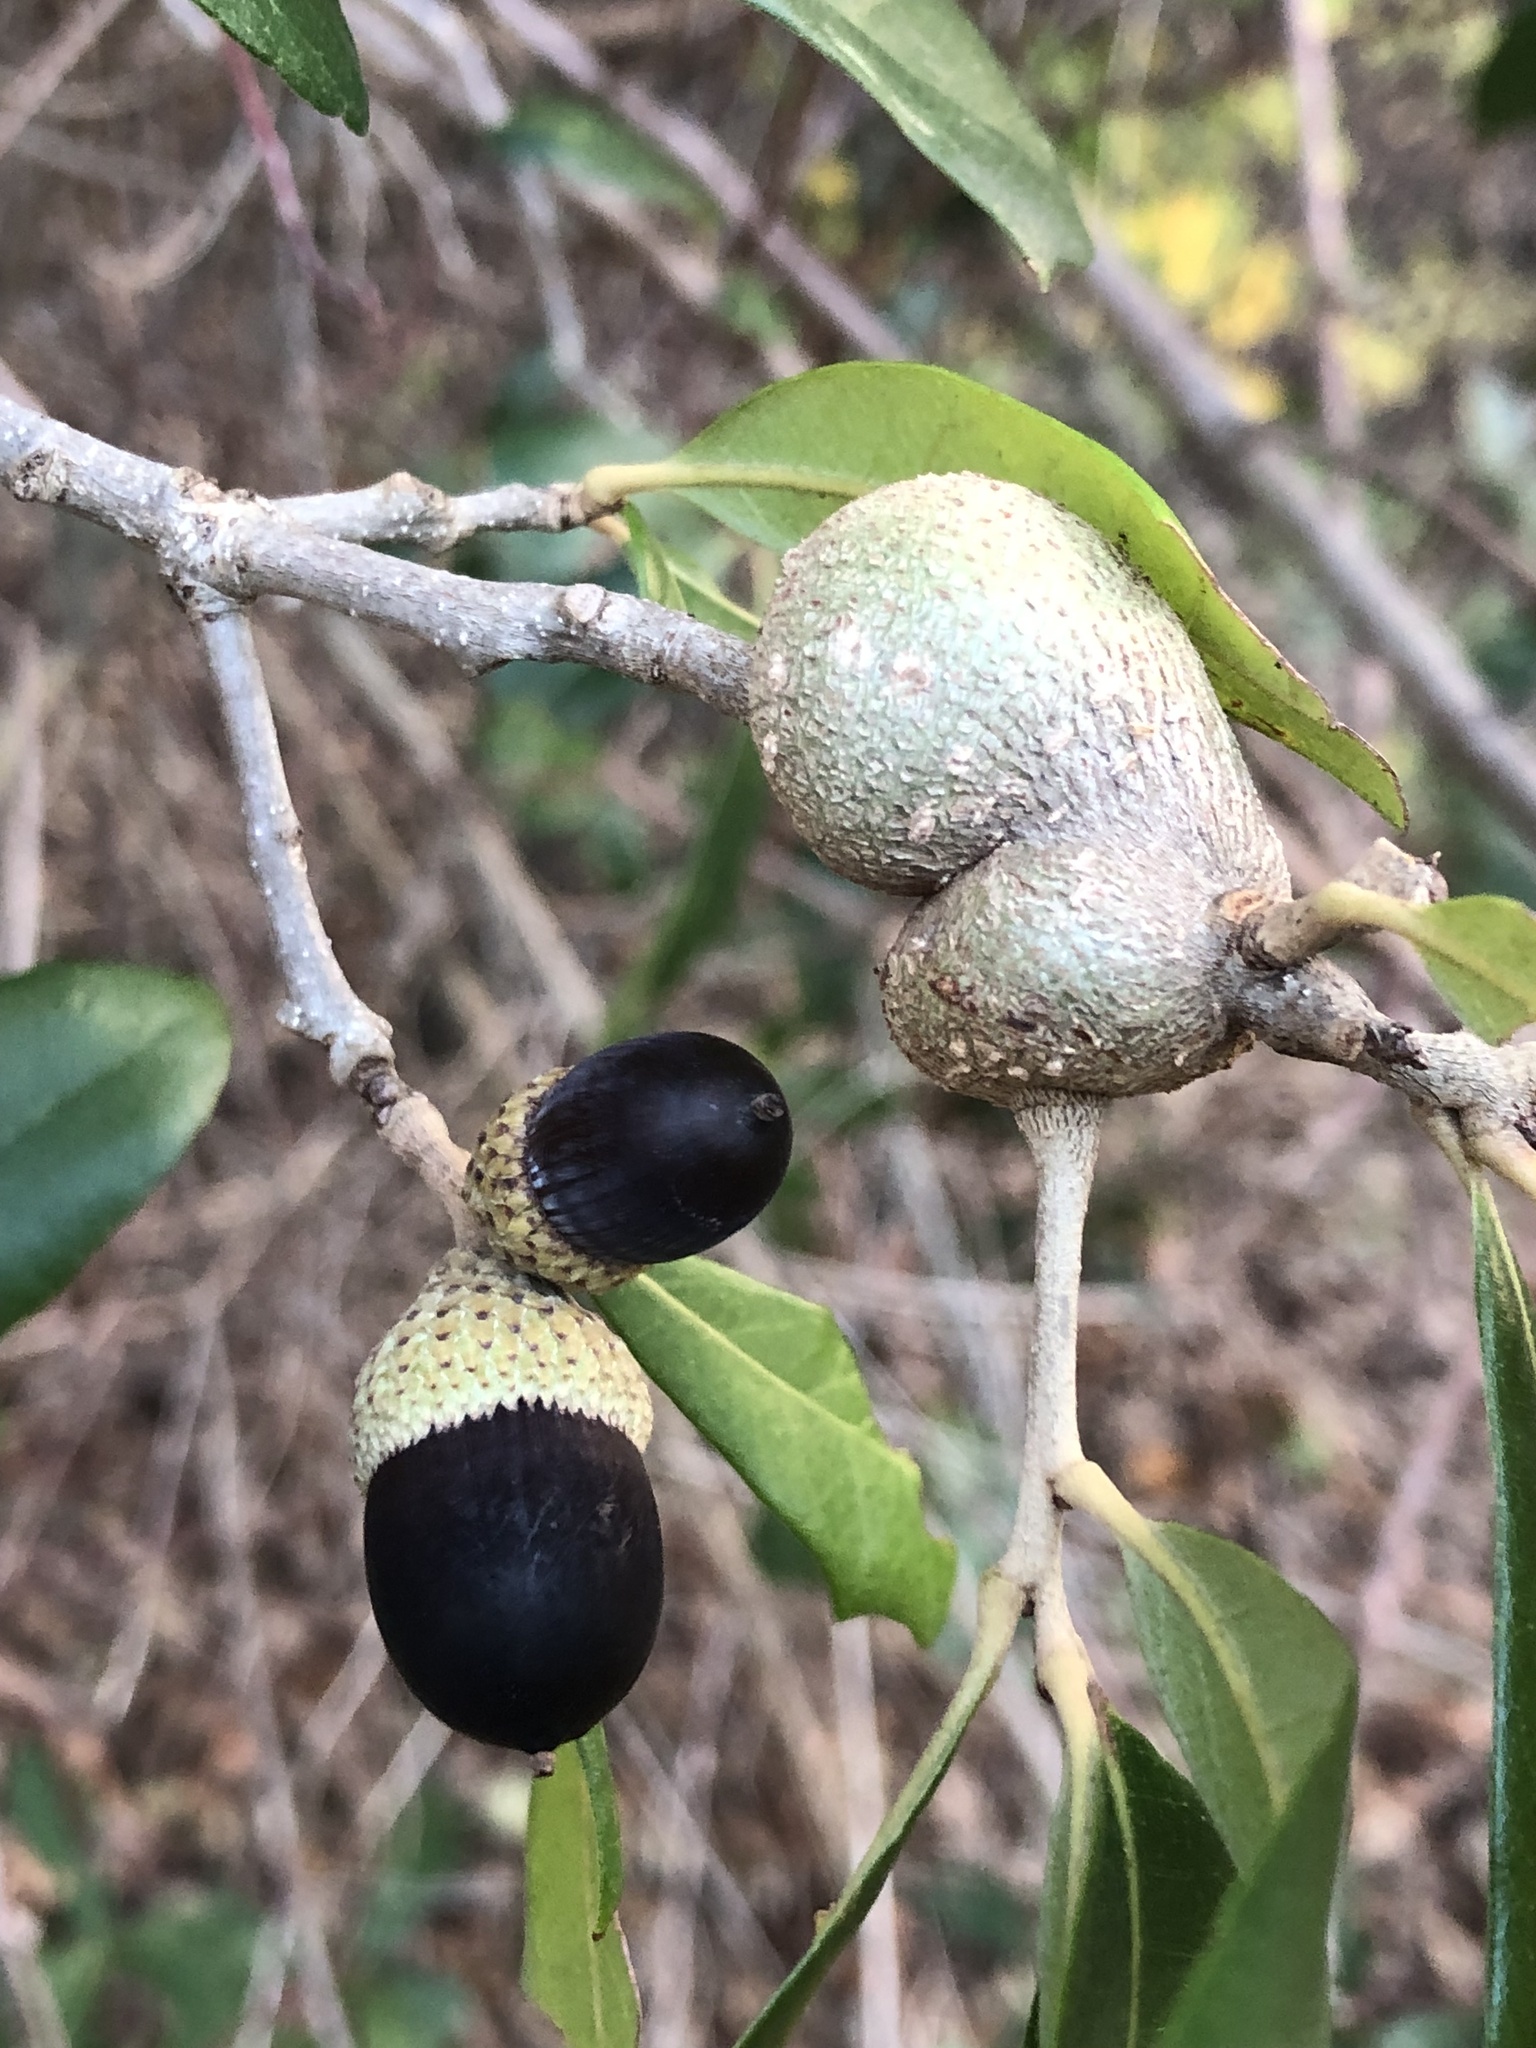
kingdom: Animalia
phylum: Arthropoda
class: Insecta
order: Hymenoptera
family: Cynipidae
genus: Callirhytis
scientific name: Callirhytis
